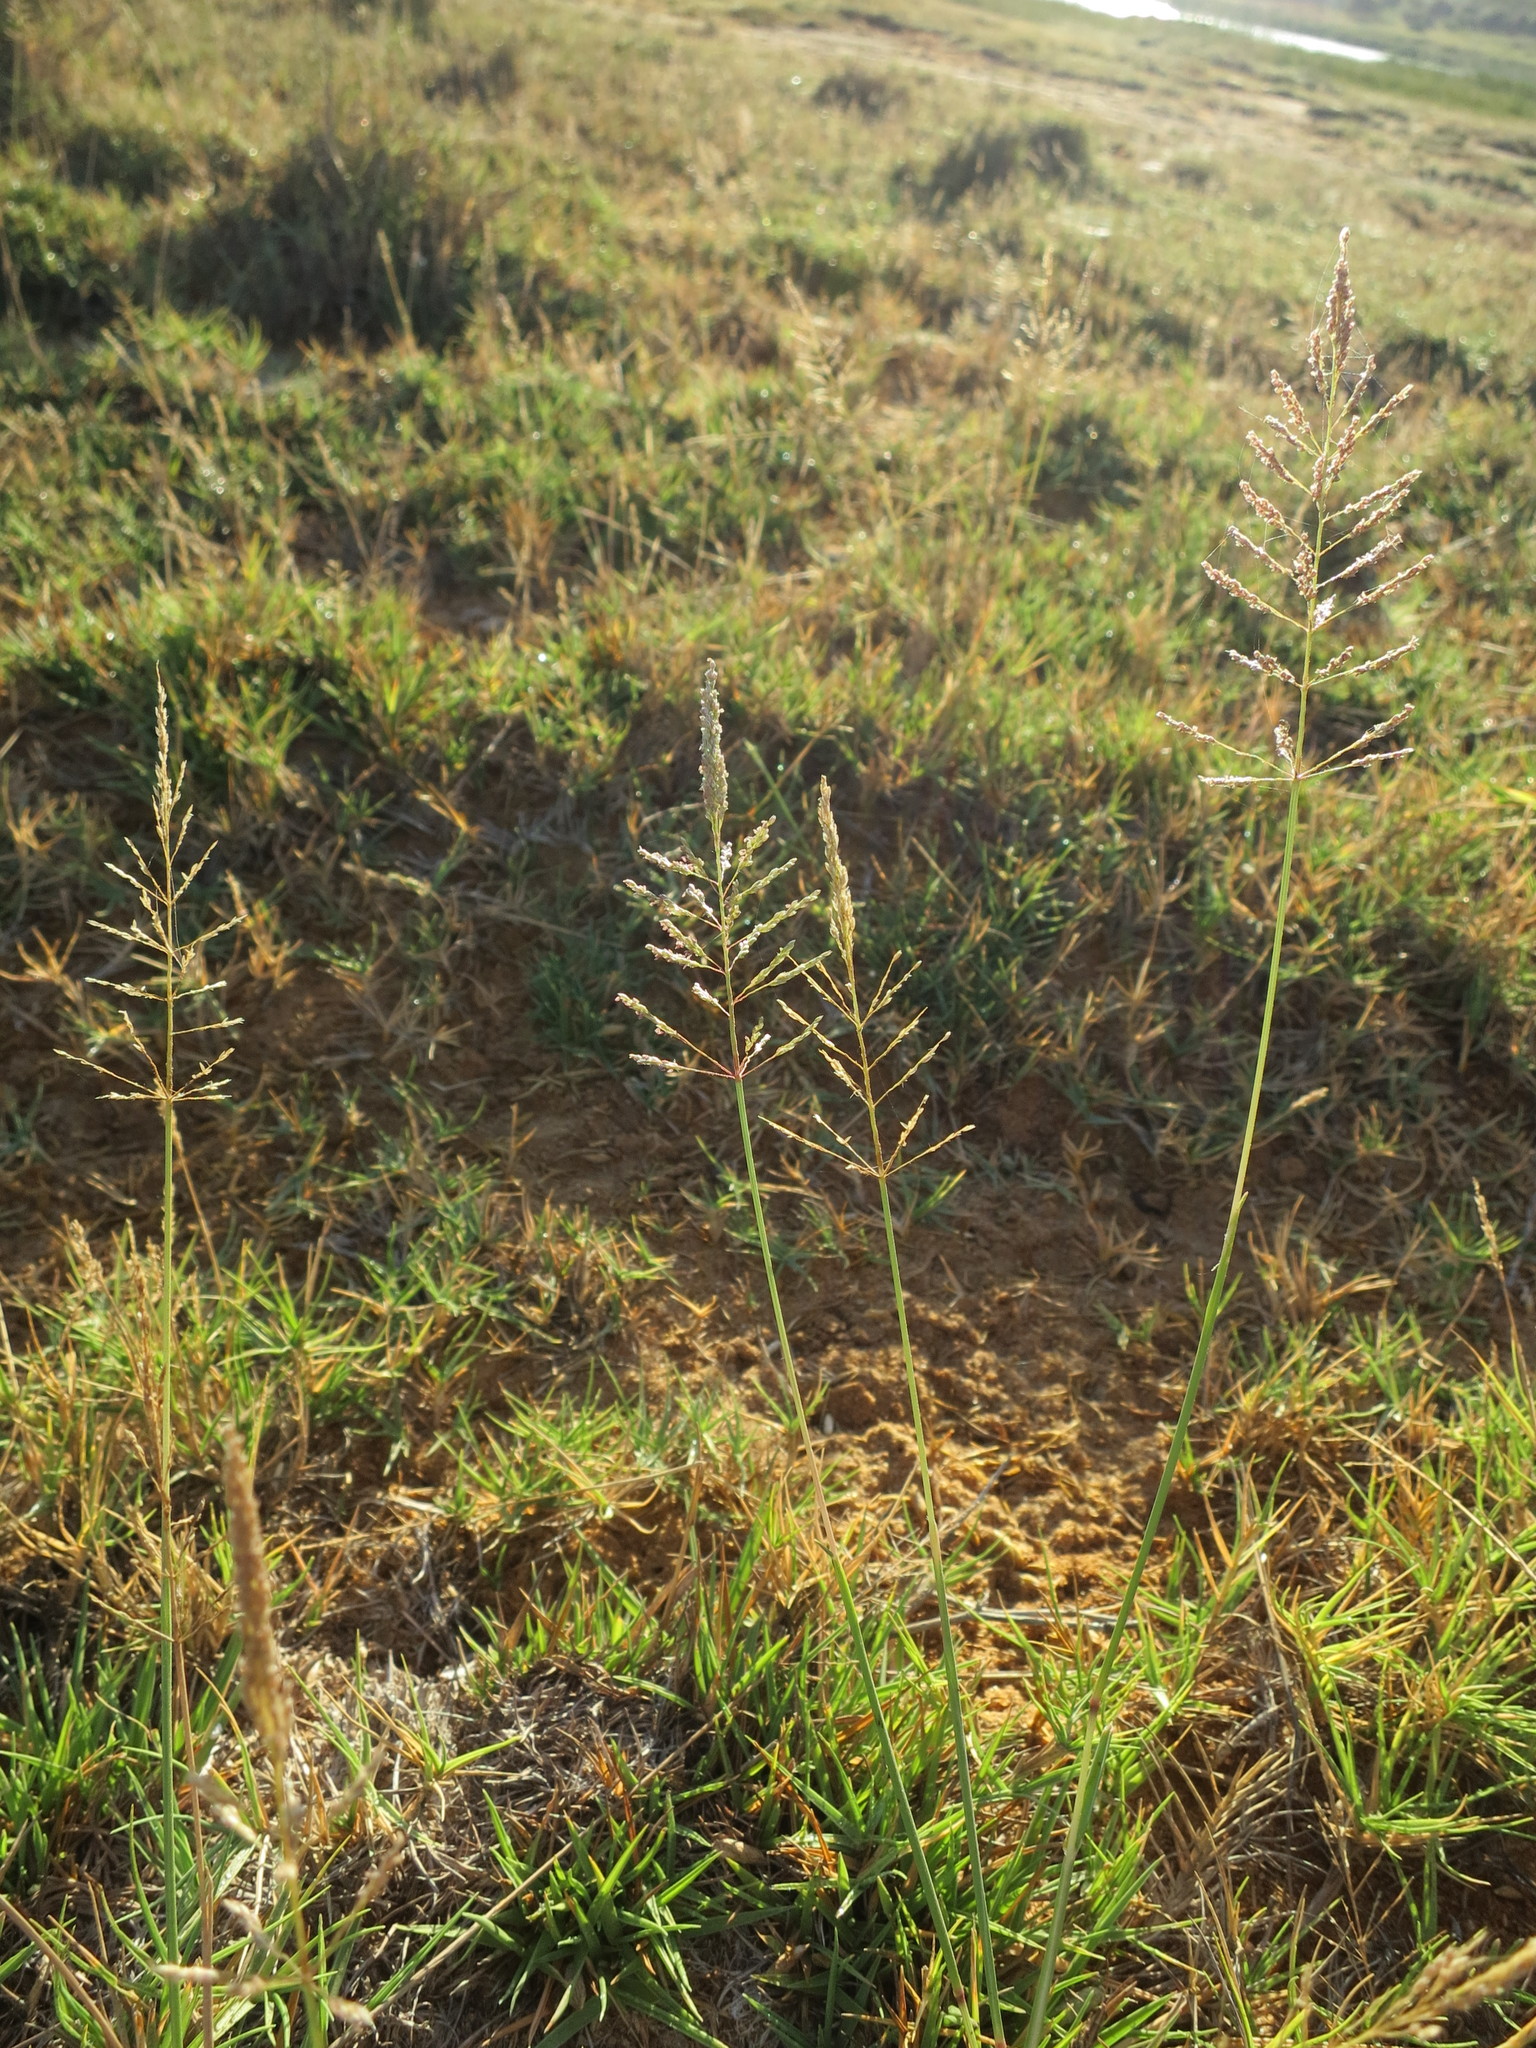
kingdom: Plantae
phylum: Tracheophyta
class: Liliopsida
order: Poales
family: Poaceae
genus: Sporobolus
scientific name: Sporobolus perrieri
